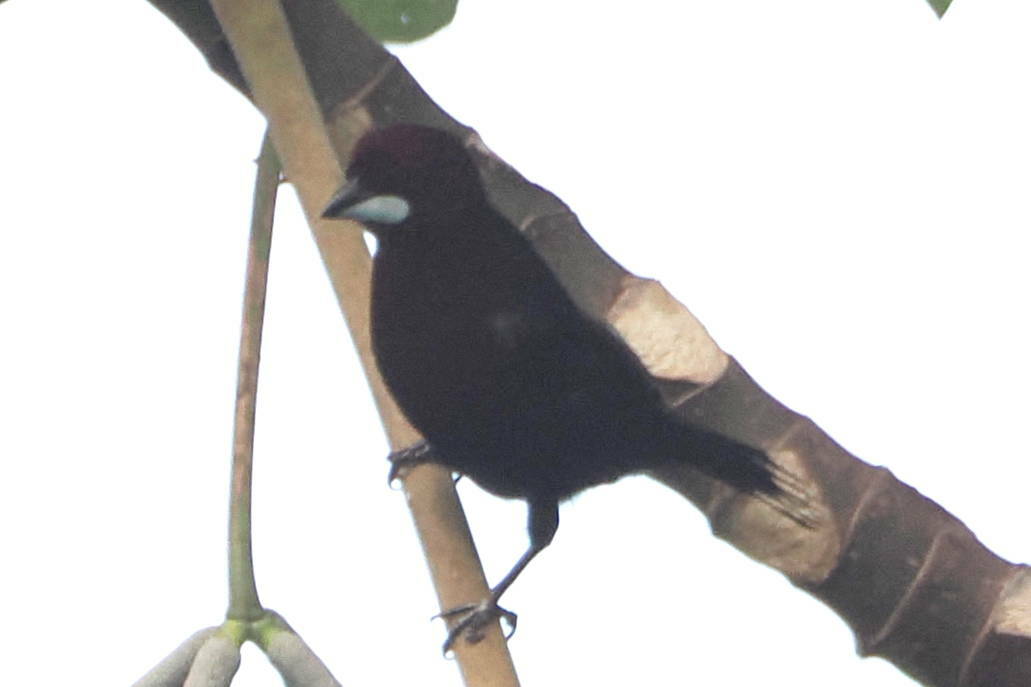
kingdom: Animalia
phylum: Chordata
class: Aves
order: Passeriformes
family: Thraupidae
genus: Ramphocelus
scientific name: Ramphocelus carbo
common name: Silver-beaked tanager
